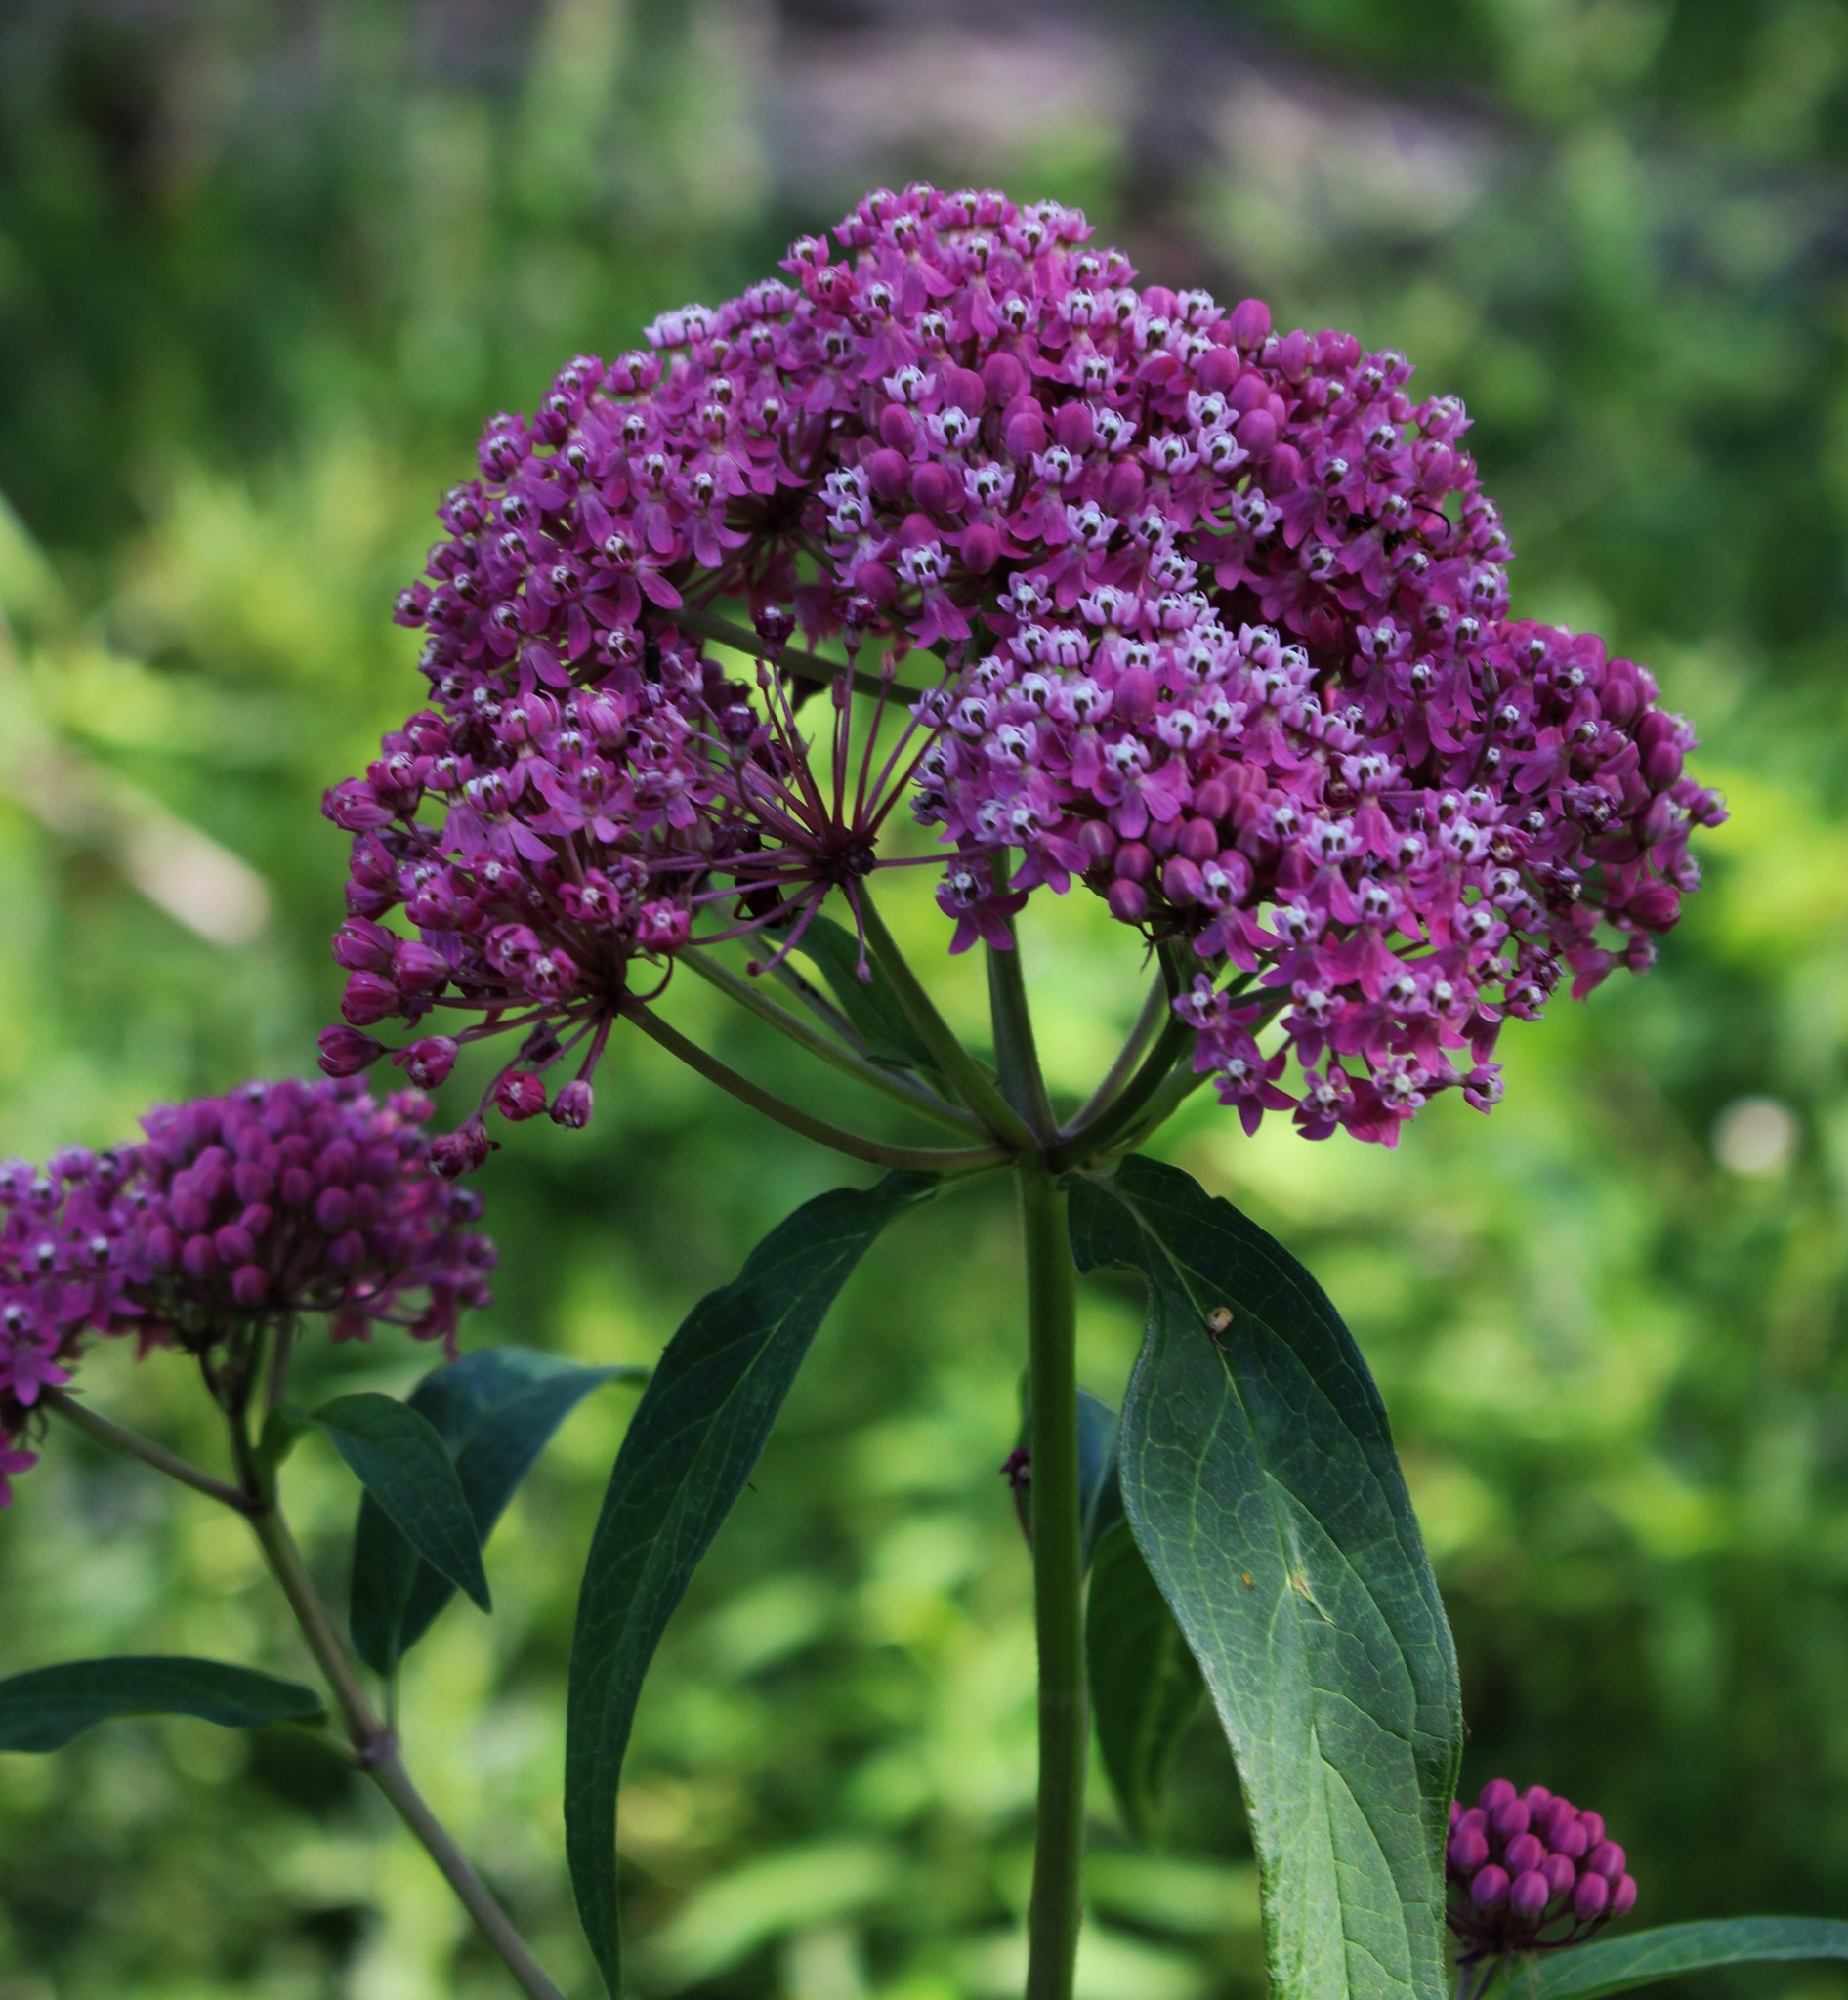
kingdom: Plantae
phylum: Tracheophyta
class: Magnoliopsida
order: Gentianales
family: Apocynaceae
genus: Asclepias
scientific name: Asclepias incarnata
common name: Swamp milkweed
